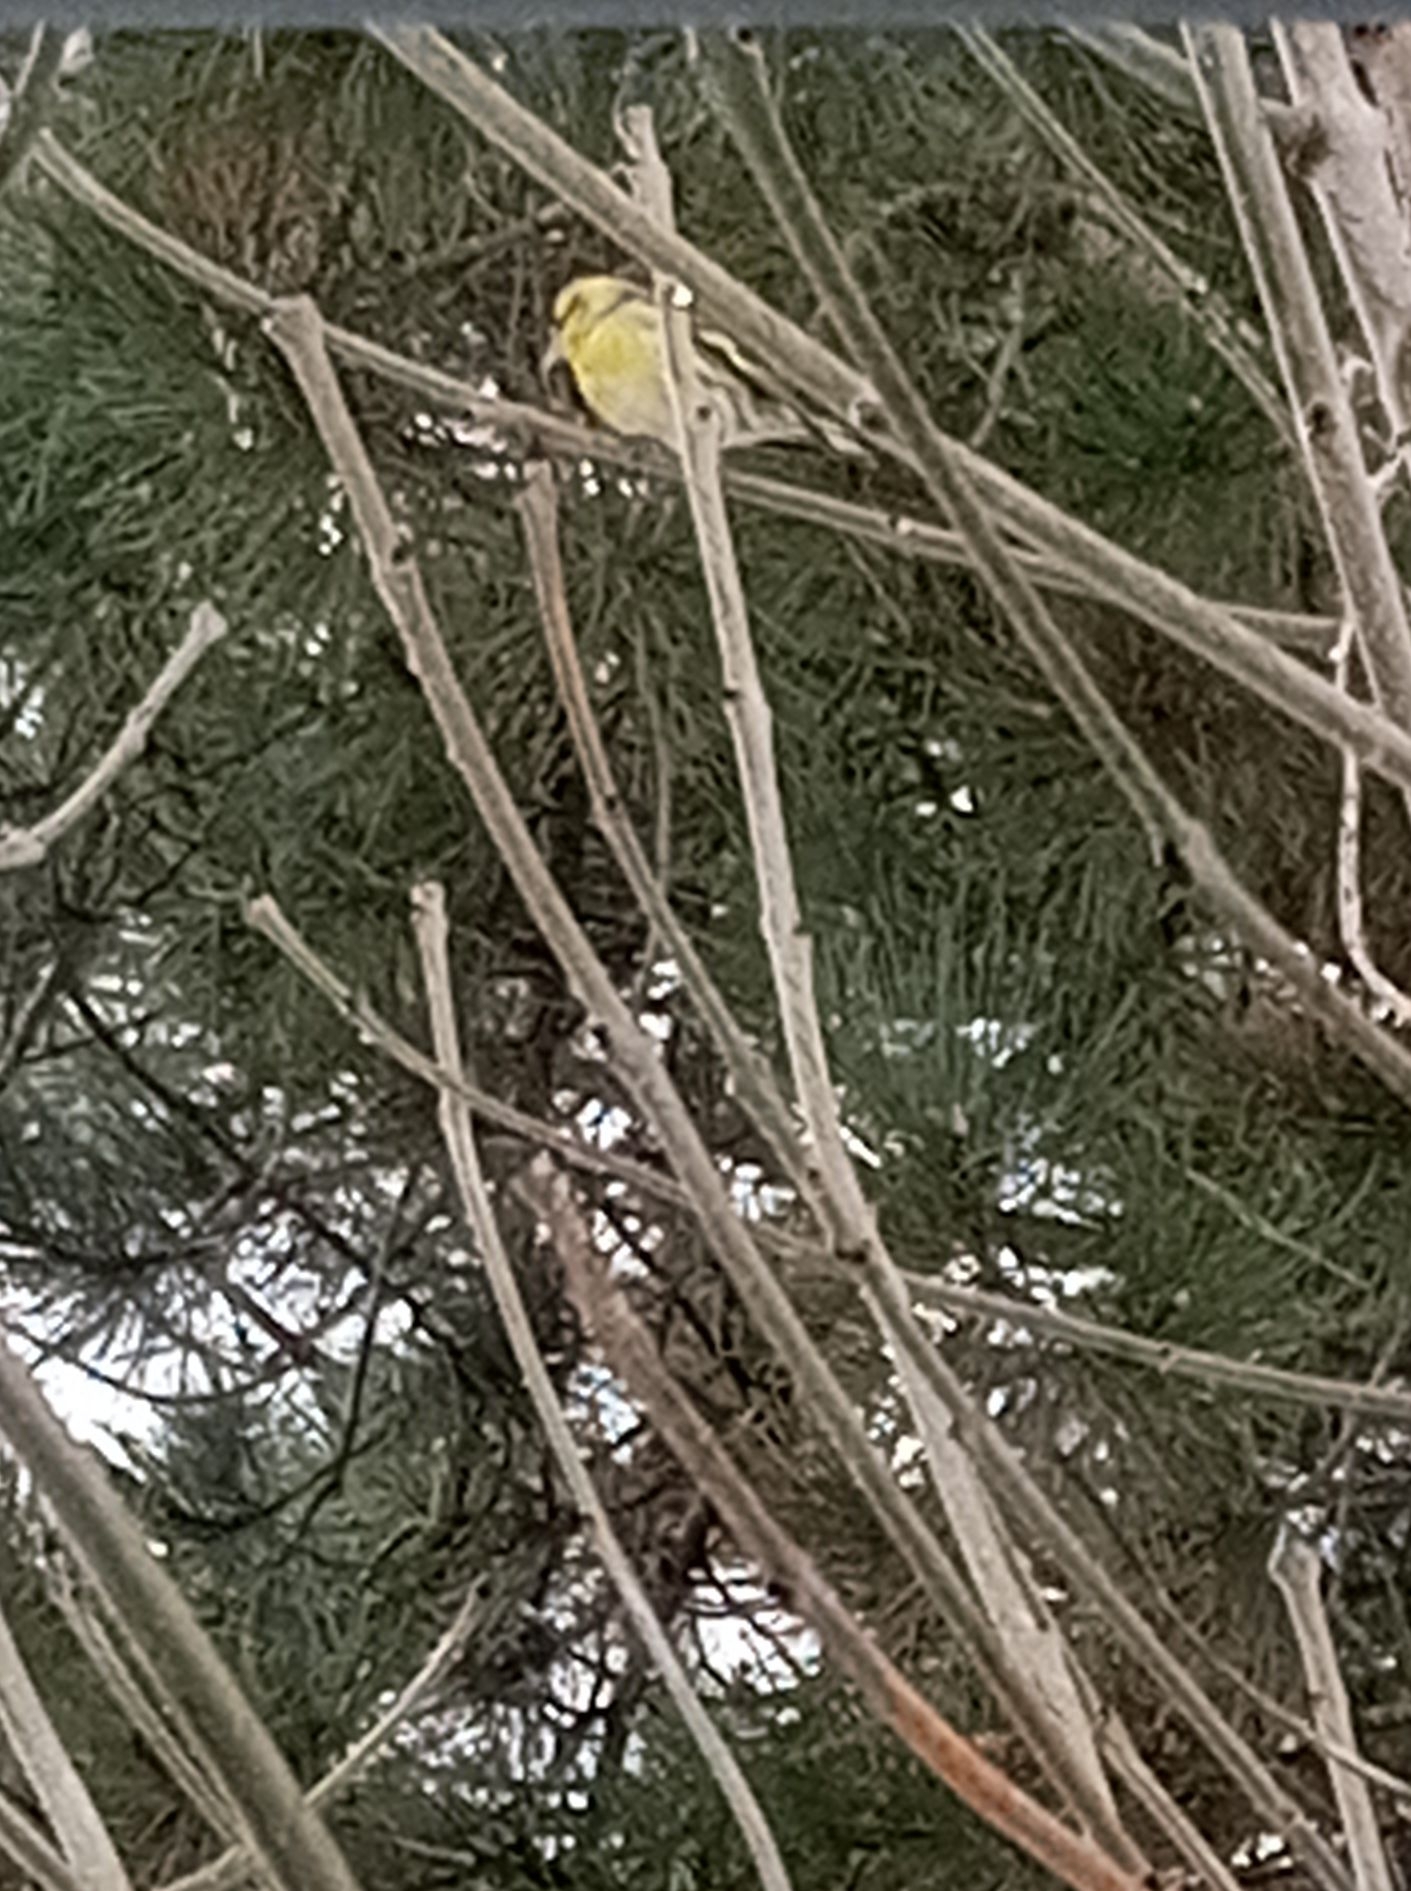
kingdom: Animalia
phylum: Chordata
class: Aves
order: Passeriformes
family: Fringillidae
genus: Spinus
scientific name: Spinus spinus
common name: Eurasian siskin
